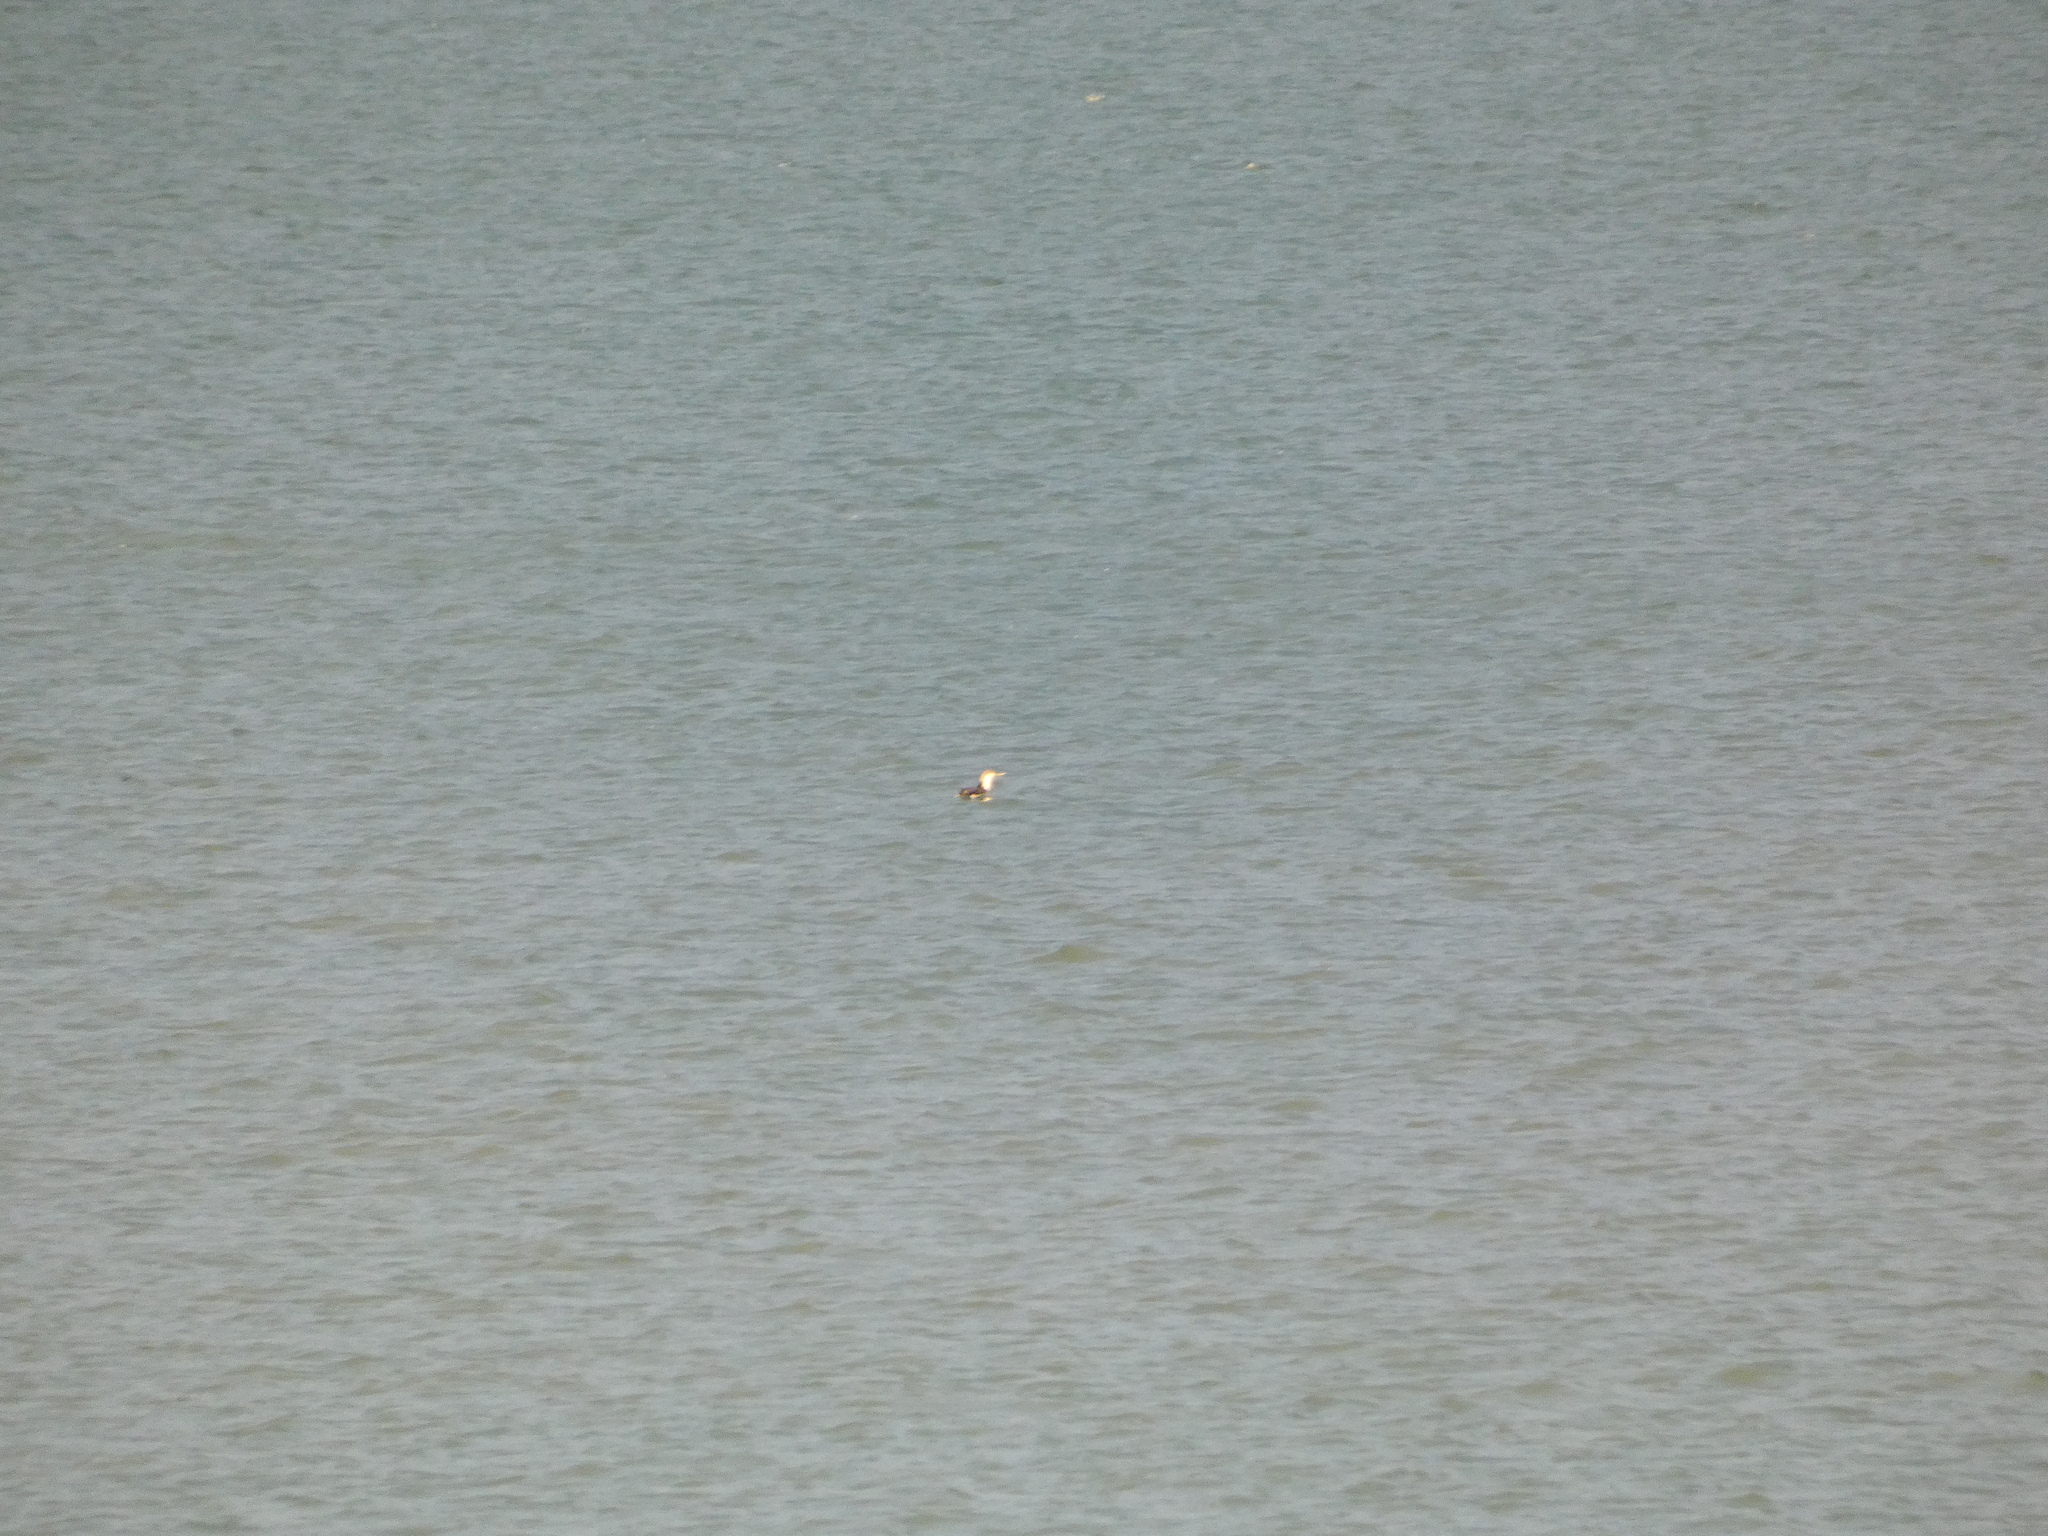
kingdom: Animalia
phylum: Chordata
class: Aves
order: Gaviiformes
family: Gaviidae
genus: Gavia
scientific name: Gavia stellata
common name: Red-throated loon
